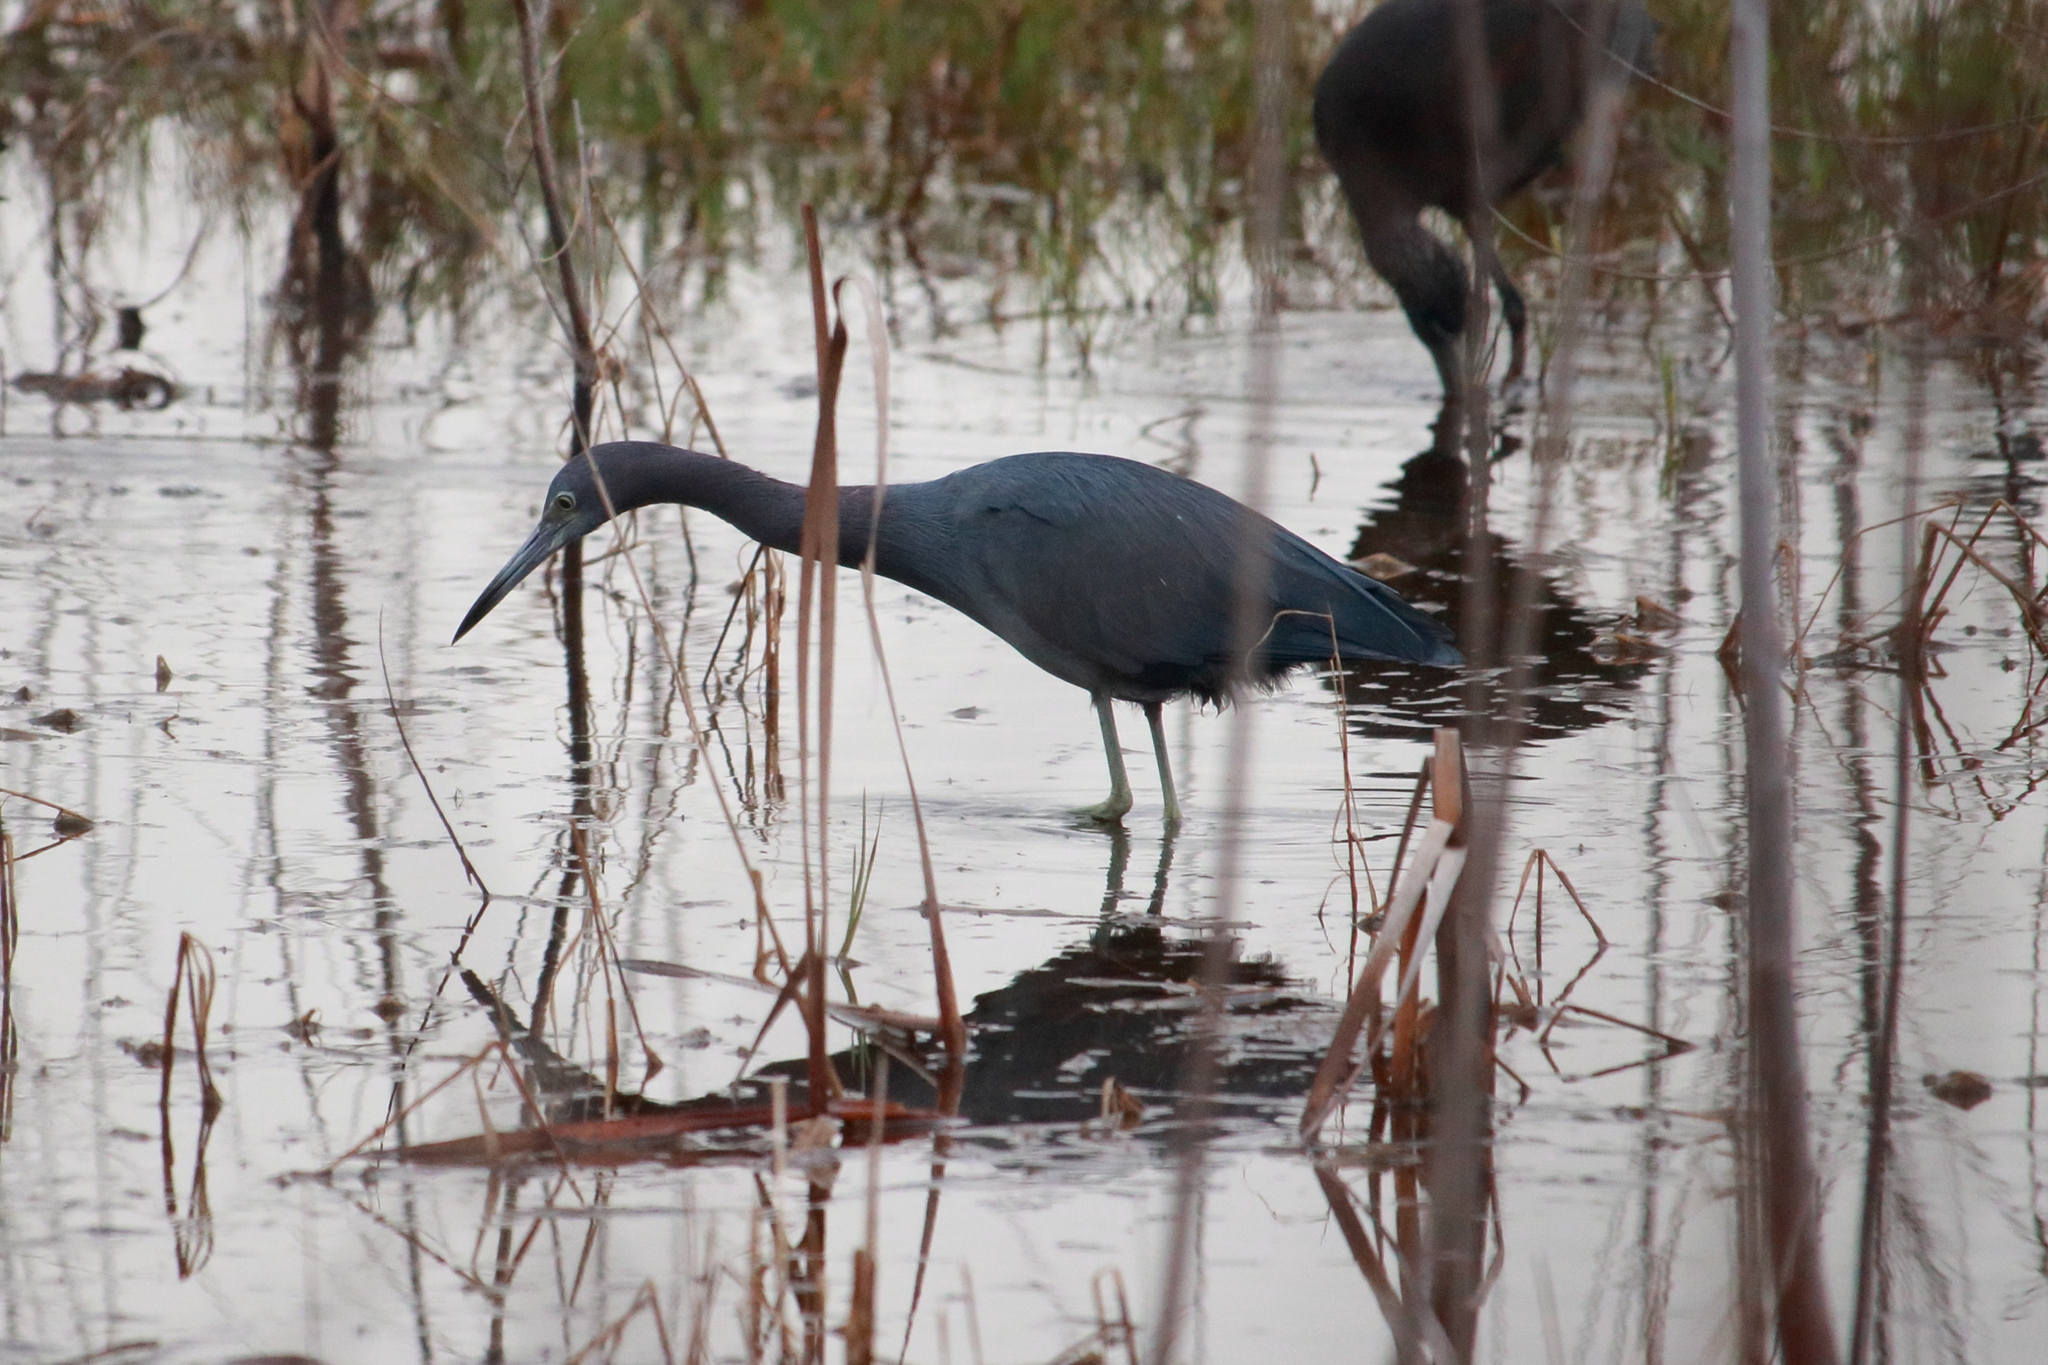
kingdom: Animalia
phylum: Chordata
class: Aves
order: Pelecaniformes
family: Ardeidae
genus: Egretta
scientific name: Egretta caerulea
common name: Little blue heron
